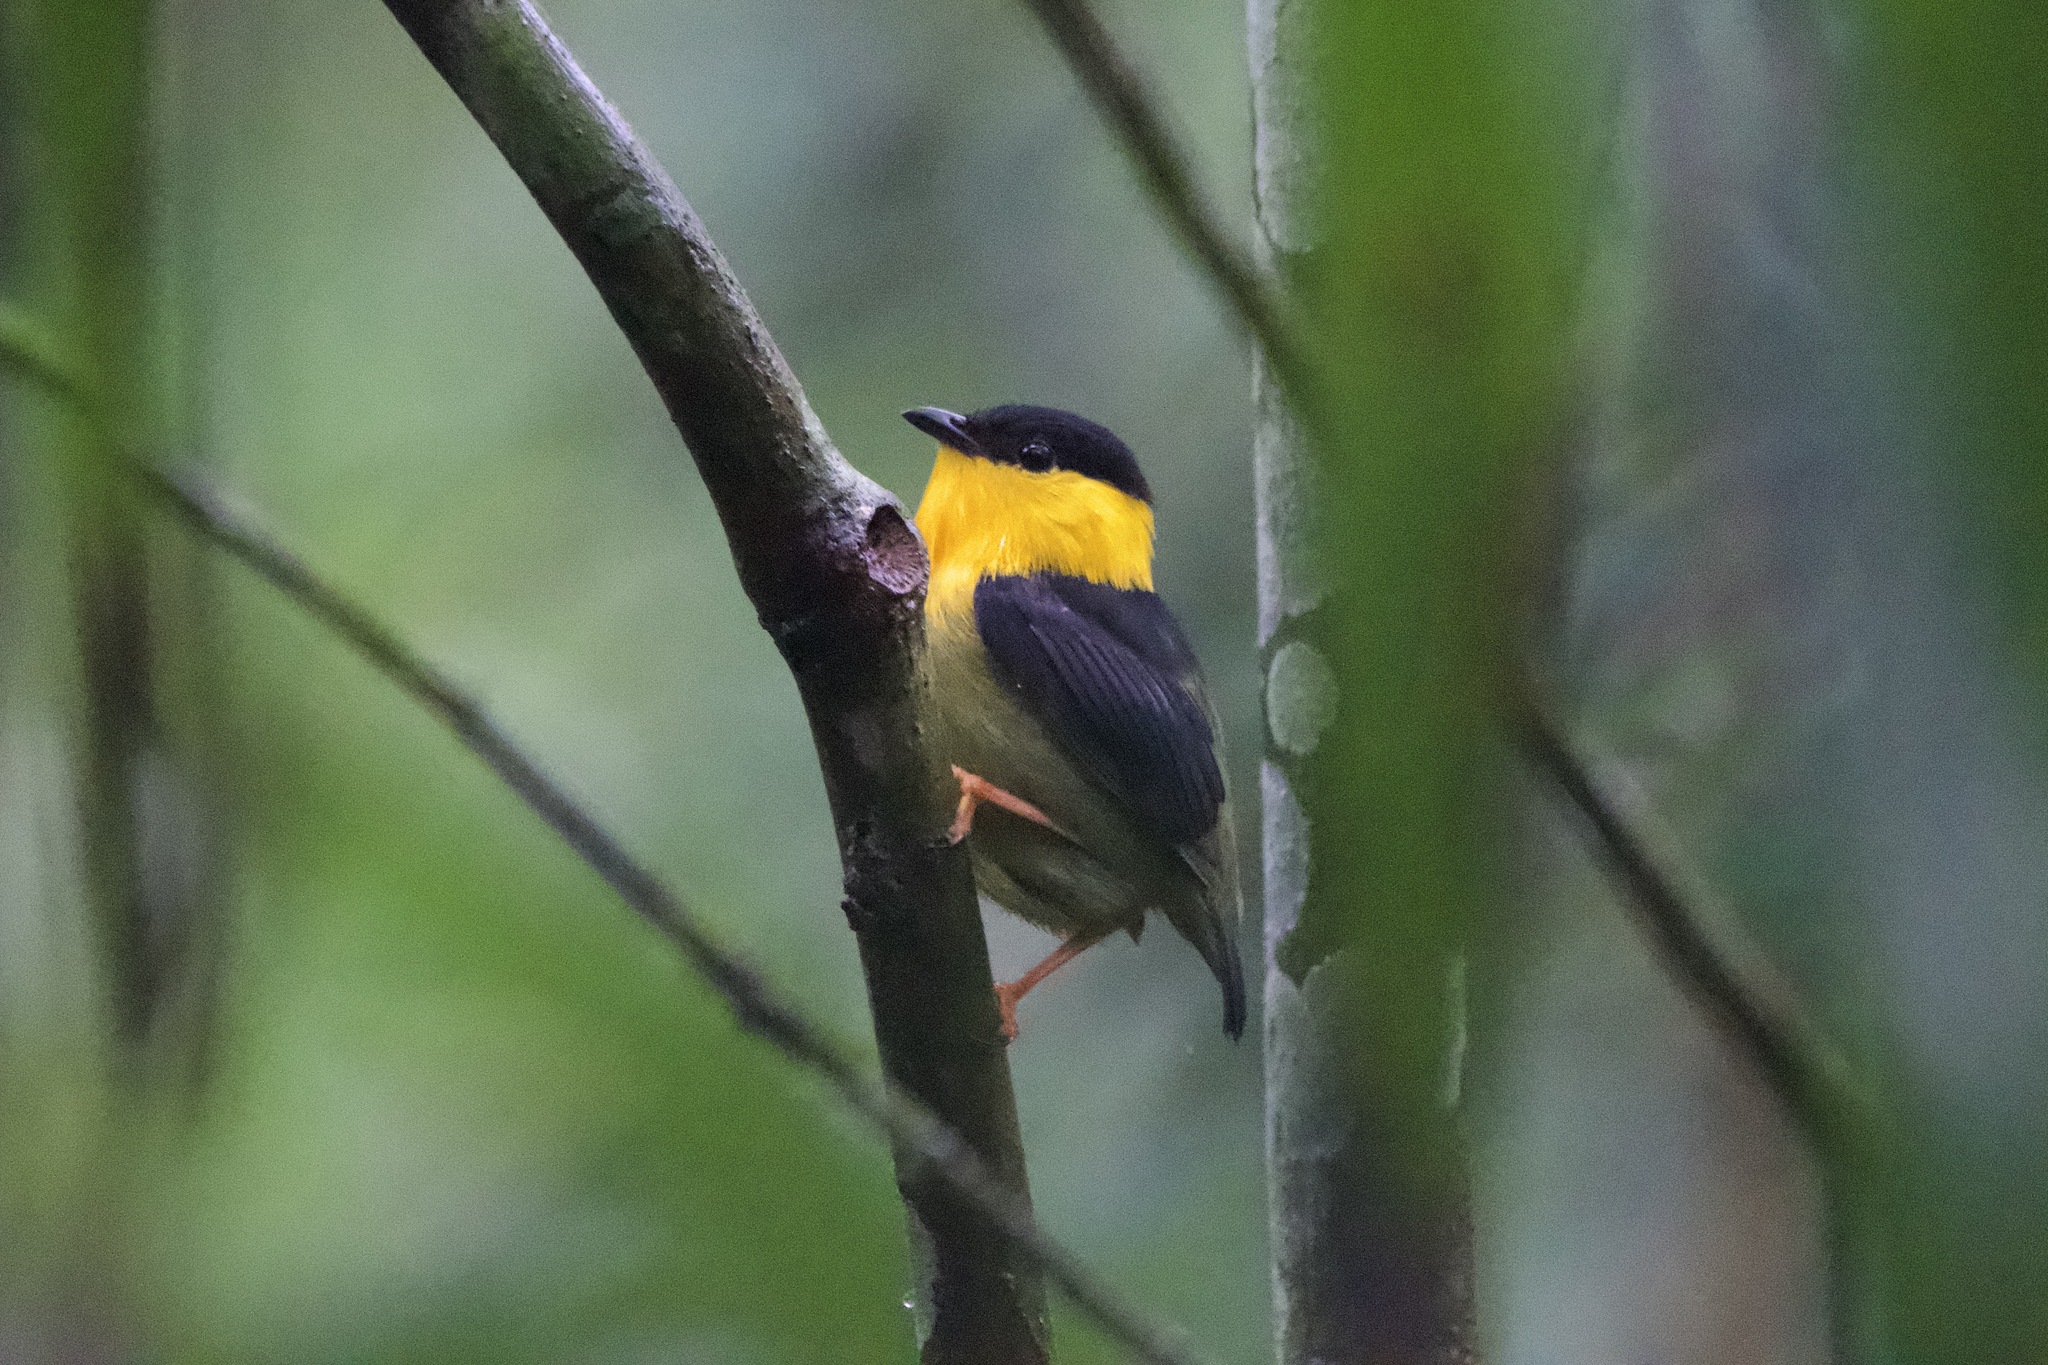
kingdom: Animalia
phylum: Chordata
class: Aves
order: Passeriformes
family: Pipridae
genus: Manacus
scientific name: Manacus vitellinus
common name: Golden-collared manakin
